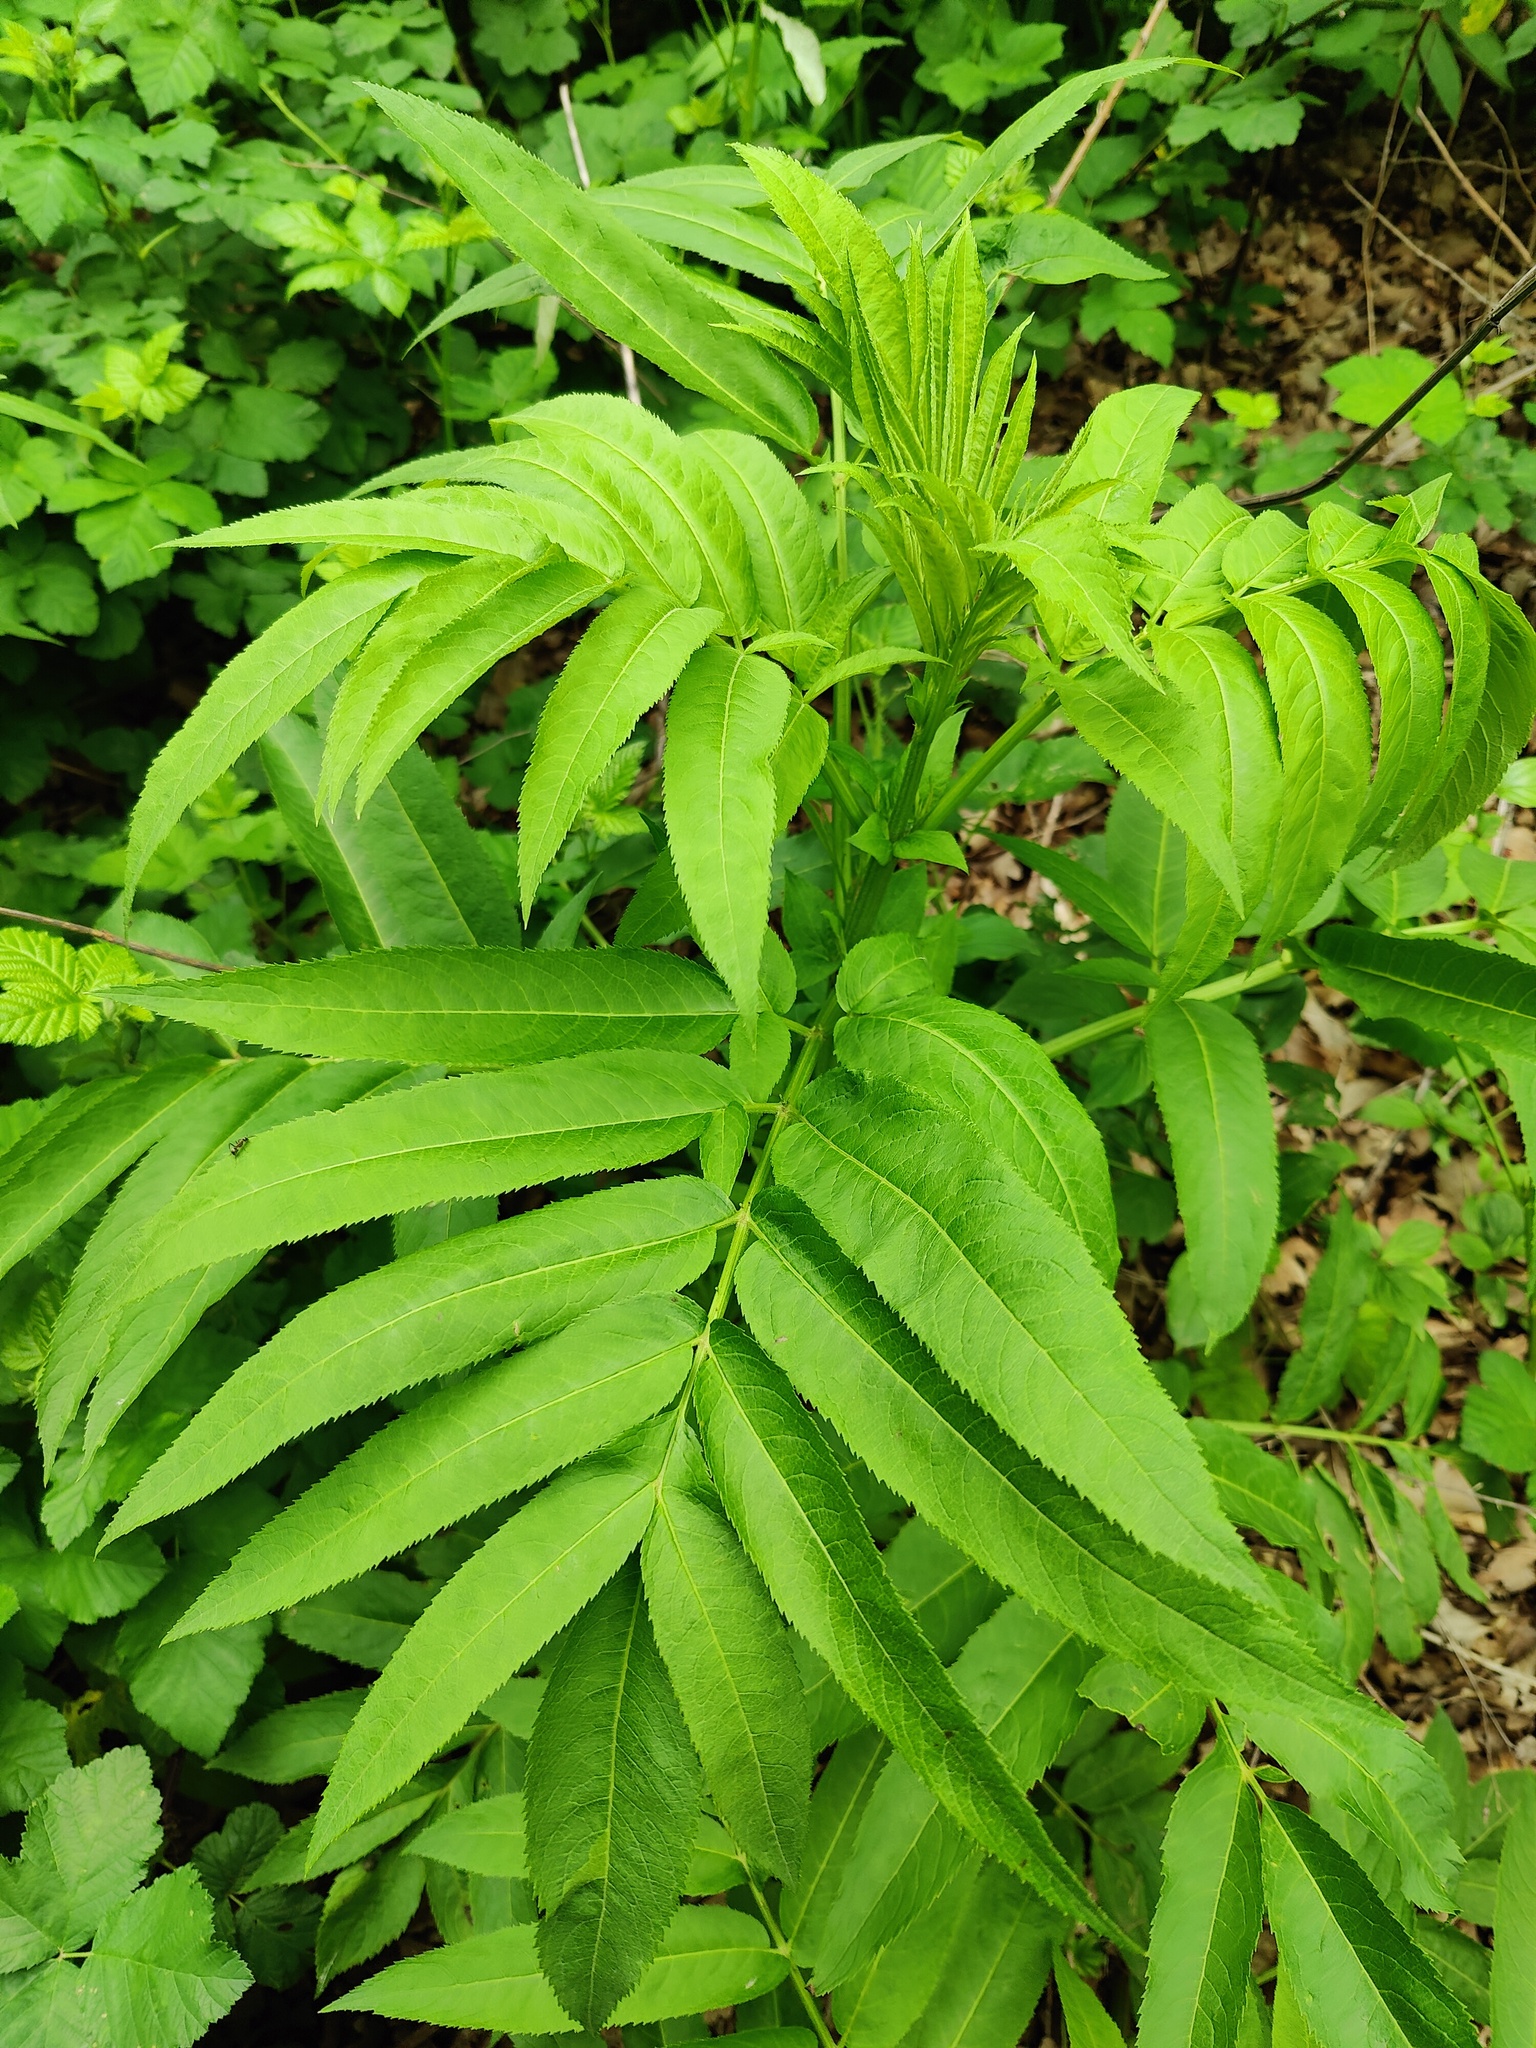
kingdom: Plantae
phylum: Tracheophyta
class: Magnoliopsida
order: Dipsacales
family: Viburnaceae
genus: Sambucus
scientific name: Sambucus ebulus
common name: Dwarf elder
